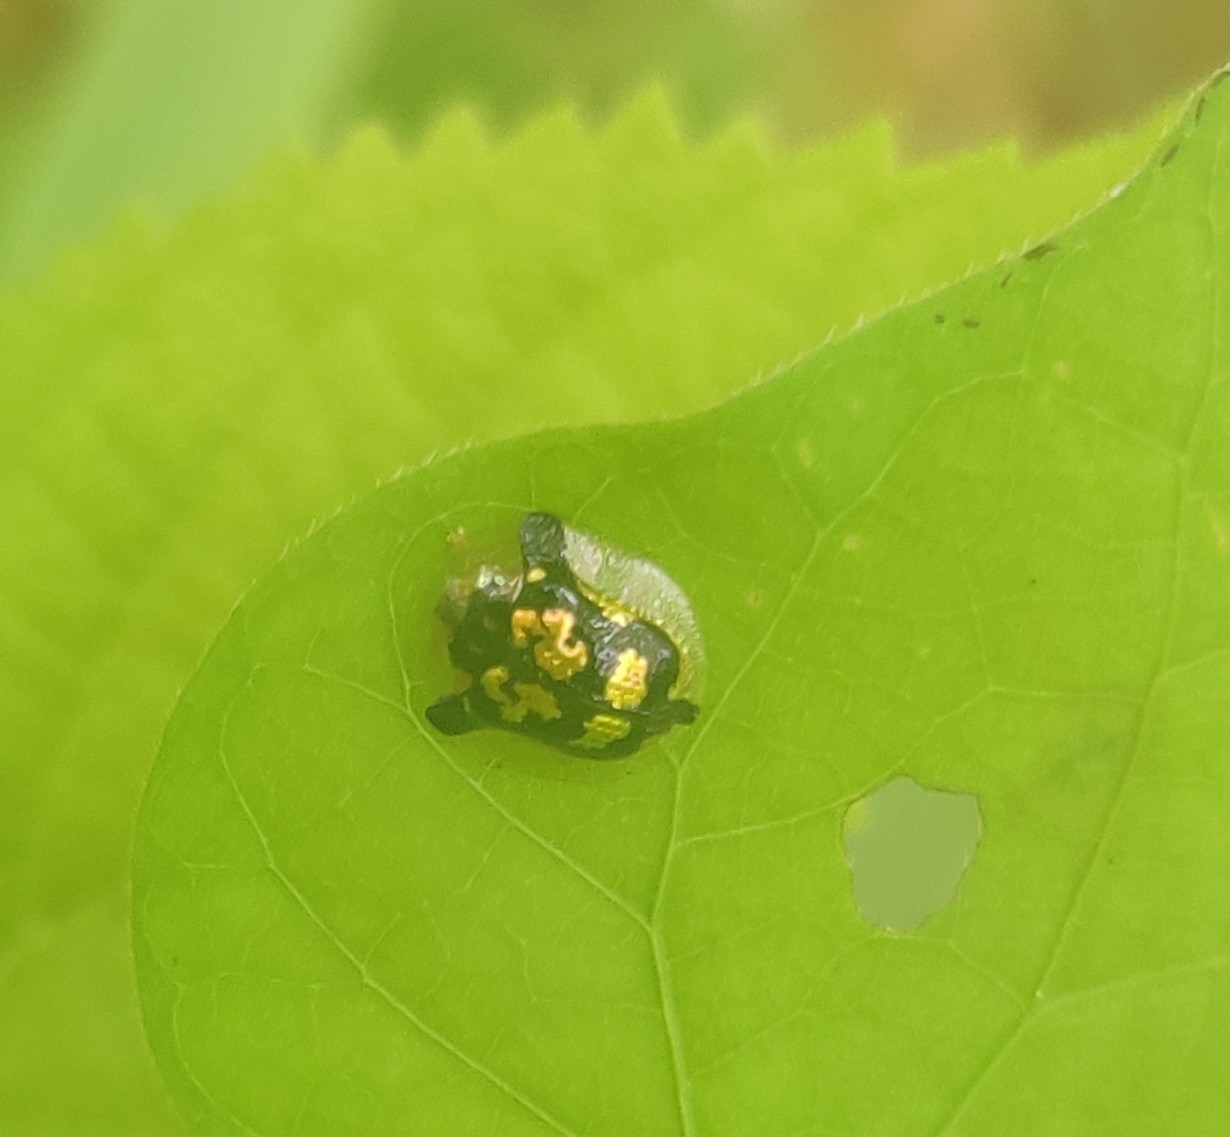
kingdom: Animalia
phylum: Arthropoda
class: Insecta
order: Coleoptera
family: Chrysomelidae
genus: Deloyala
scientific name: Deloyala guttata
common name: Mottled tortoise beetle
